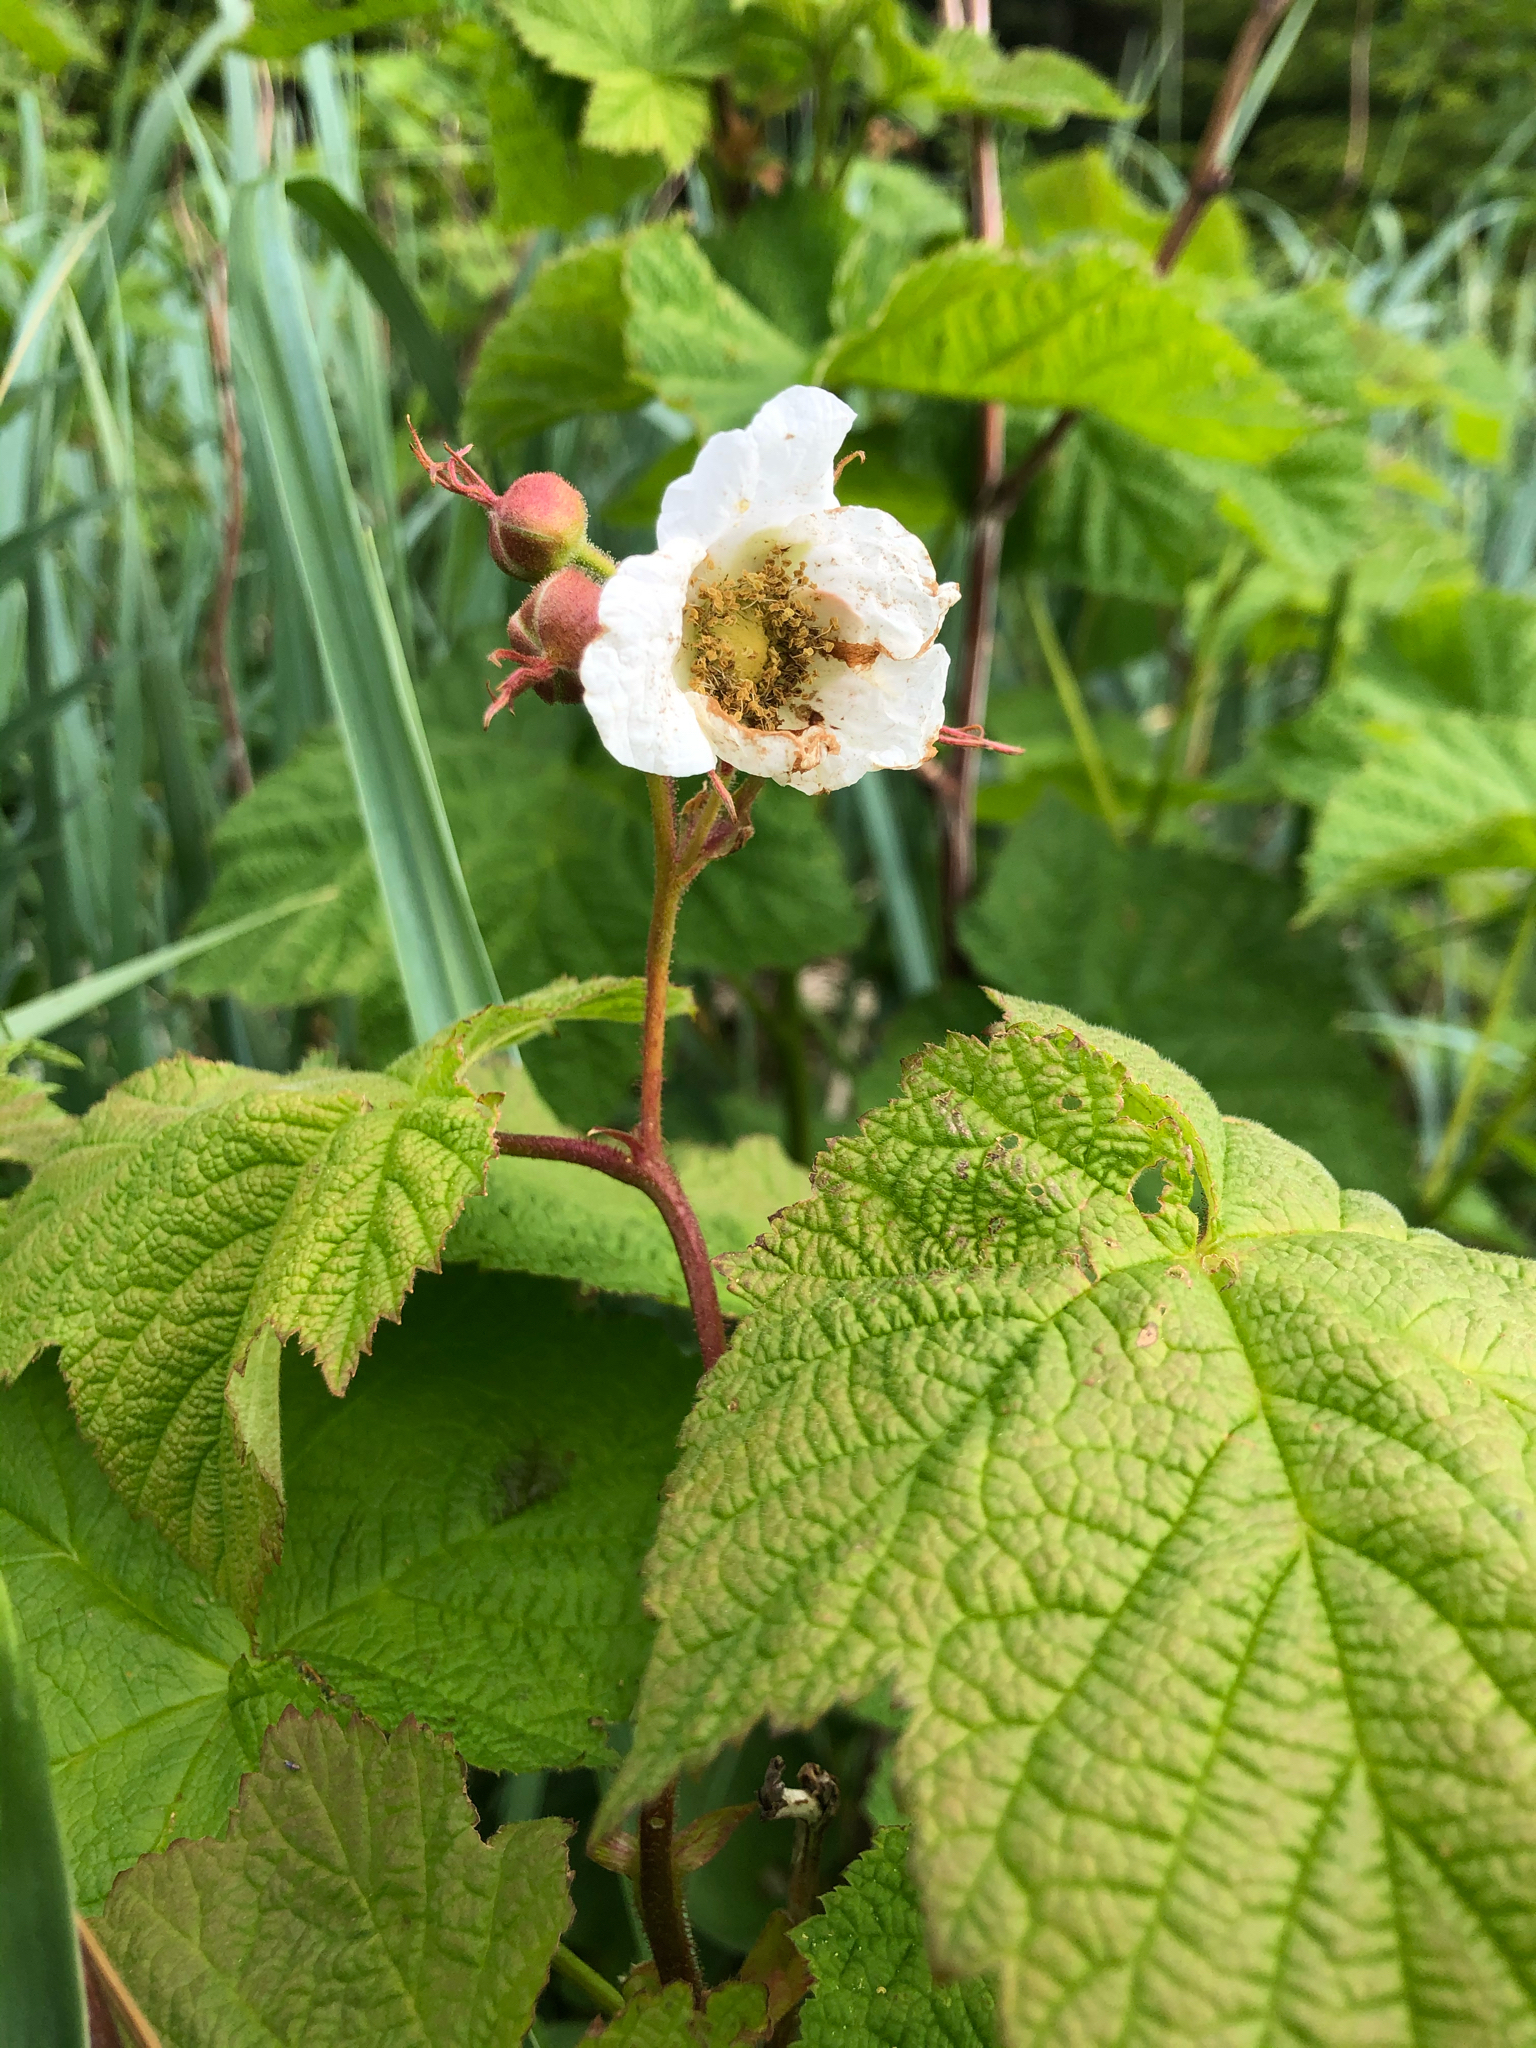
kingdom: Plantae
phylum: Tracheophyta
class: Magnoliopsida
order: Rosales
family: Rosaceae
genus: Rubus
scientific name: Rubus parviflorus
